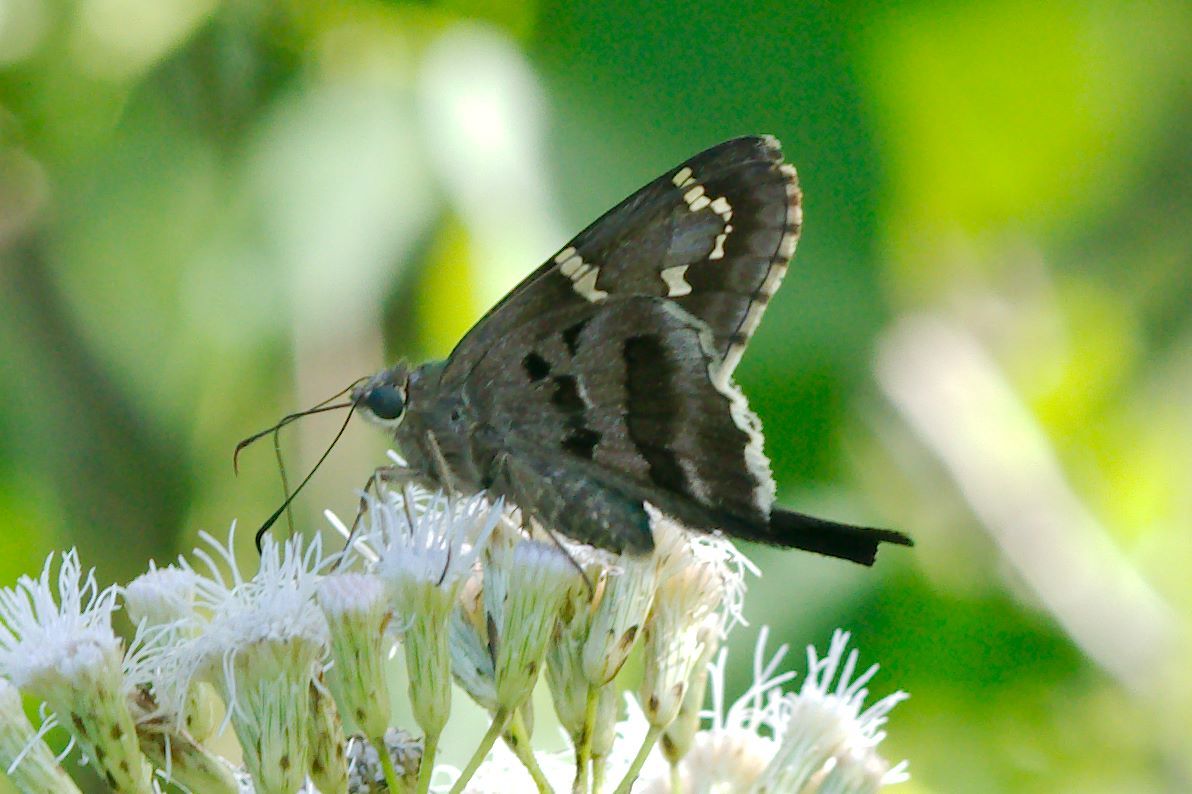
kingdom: Animalia
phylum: Arthropoda
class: Insecta
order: Lepidoptera
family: Hesperiidae
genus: Urbanus
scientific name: Urbanus proteus
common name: Long-tailed skipper
